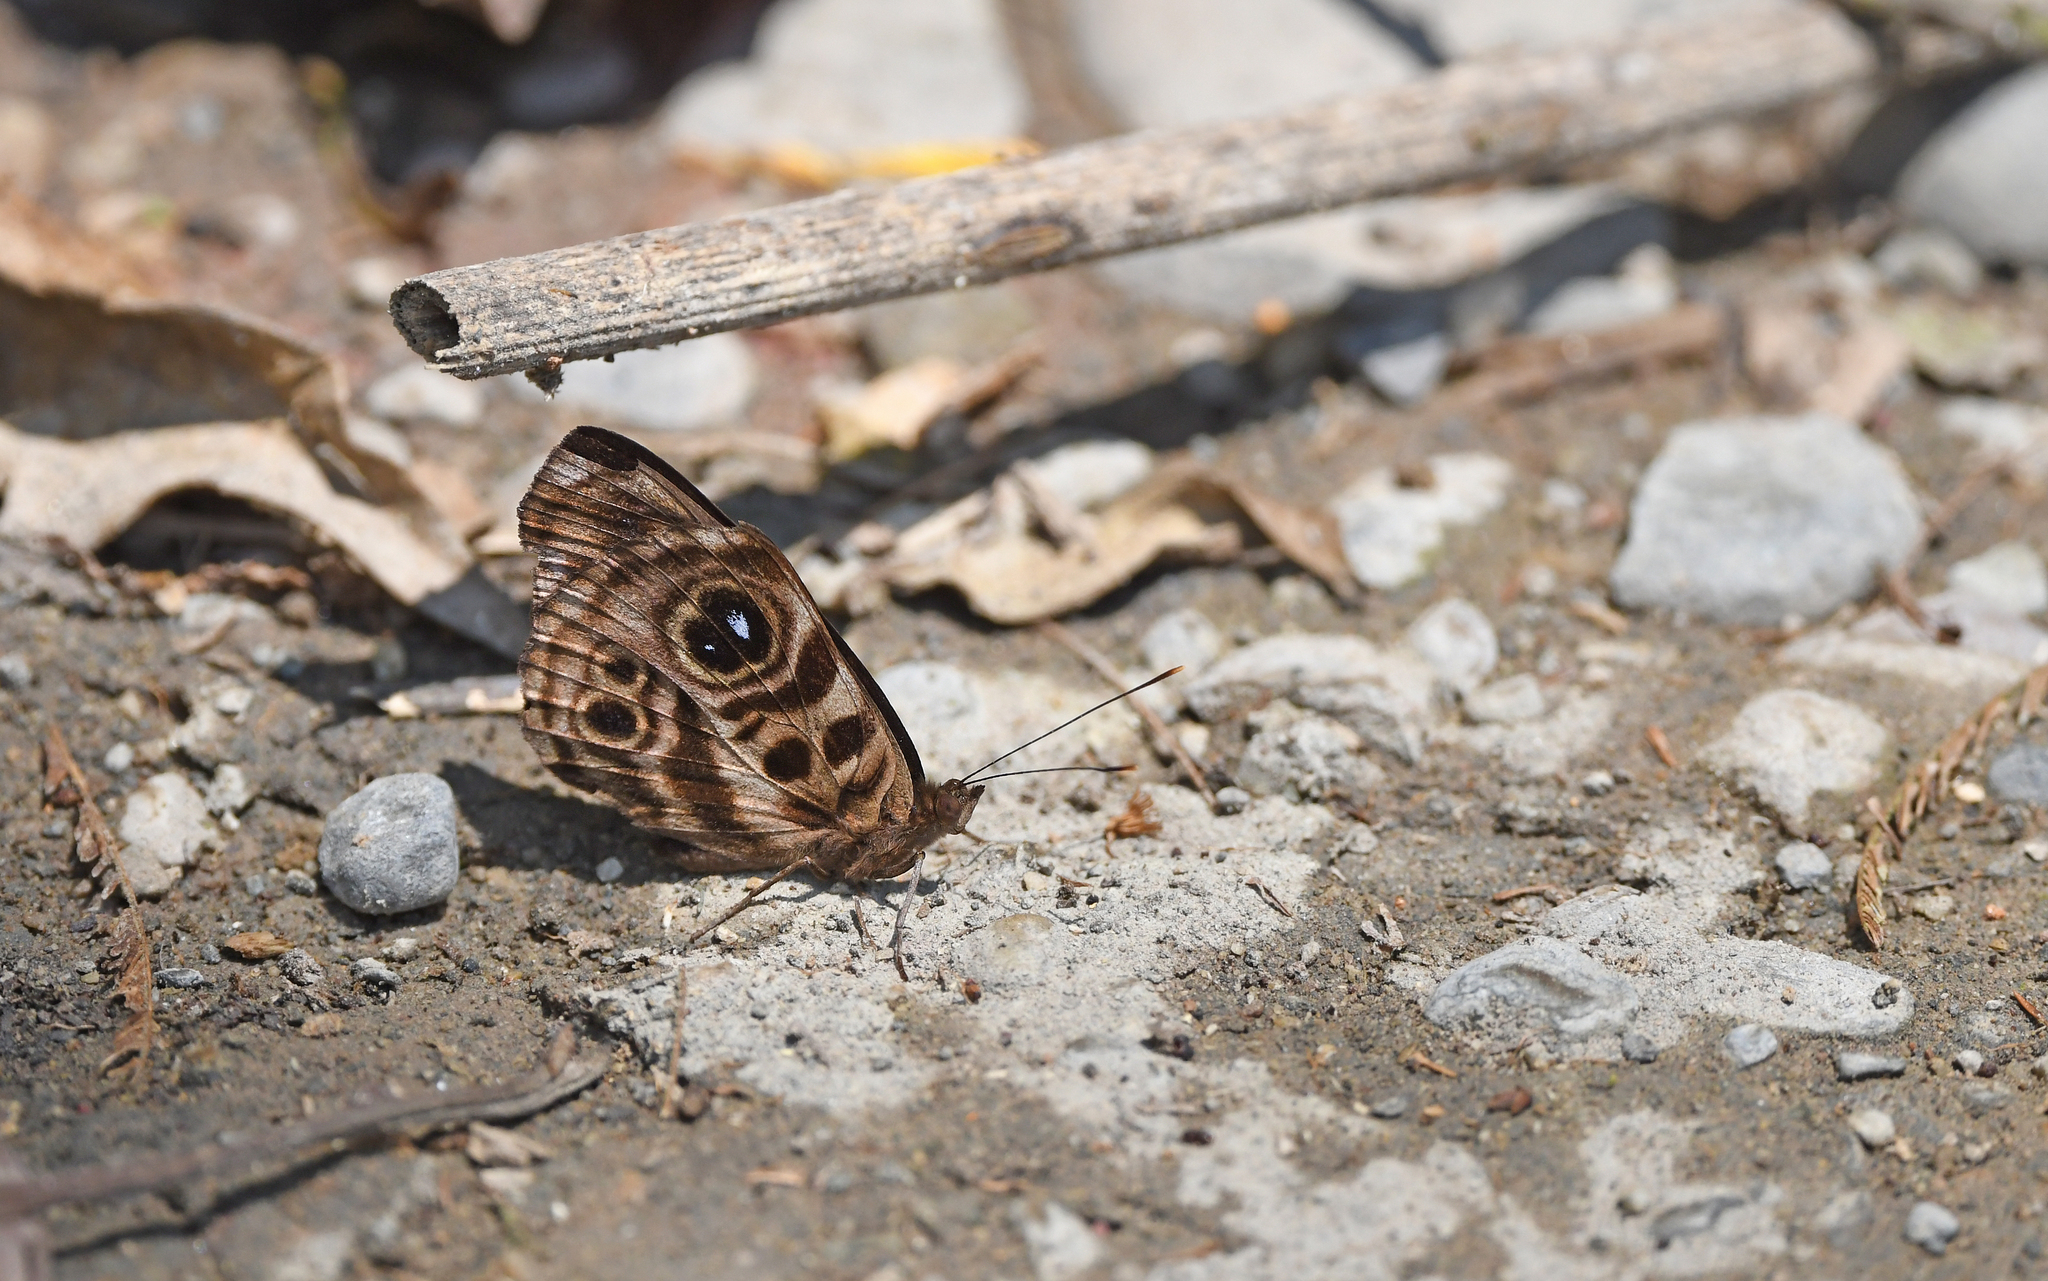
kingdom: Animalia
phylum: Arthropoda
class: Insecta
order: Lepidoptera
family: Nymphalidae
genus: Eunica
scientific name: Eunica norica
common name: Norica purplewing
